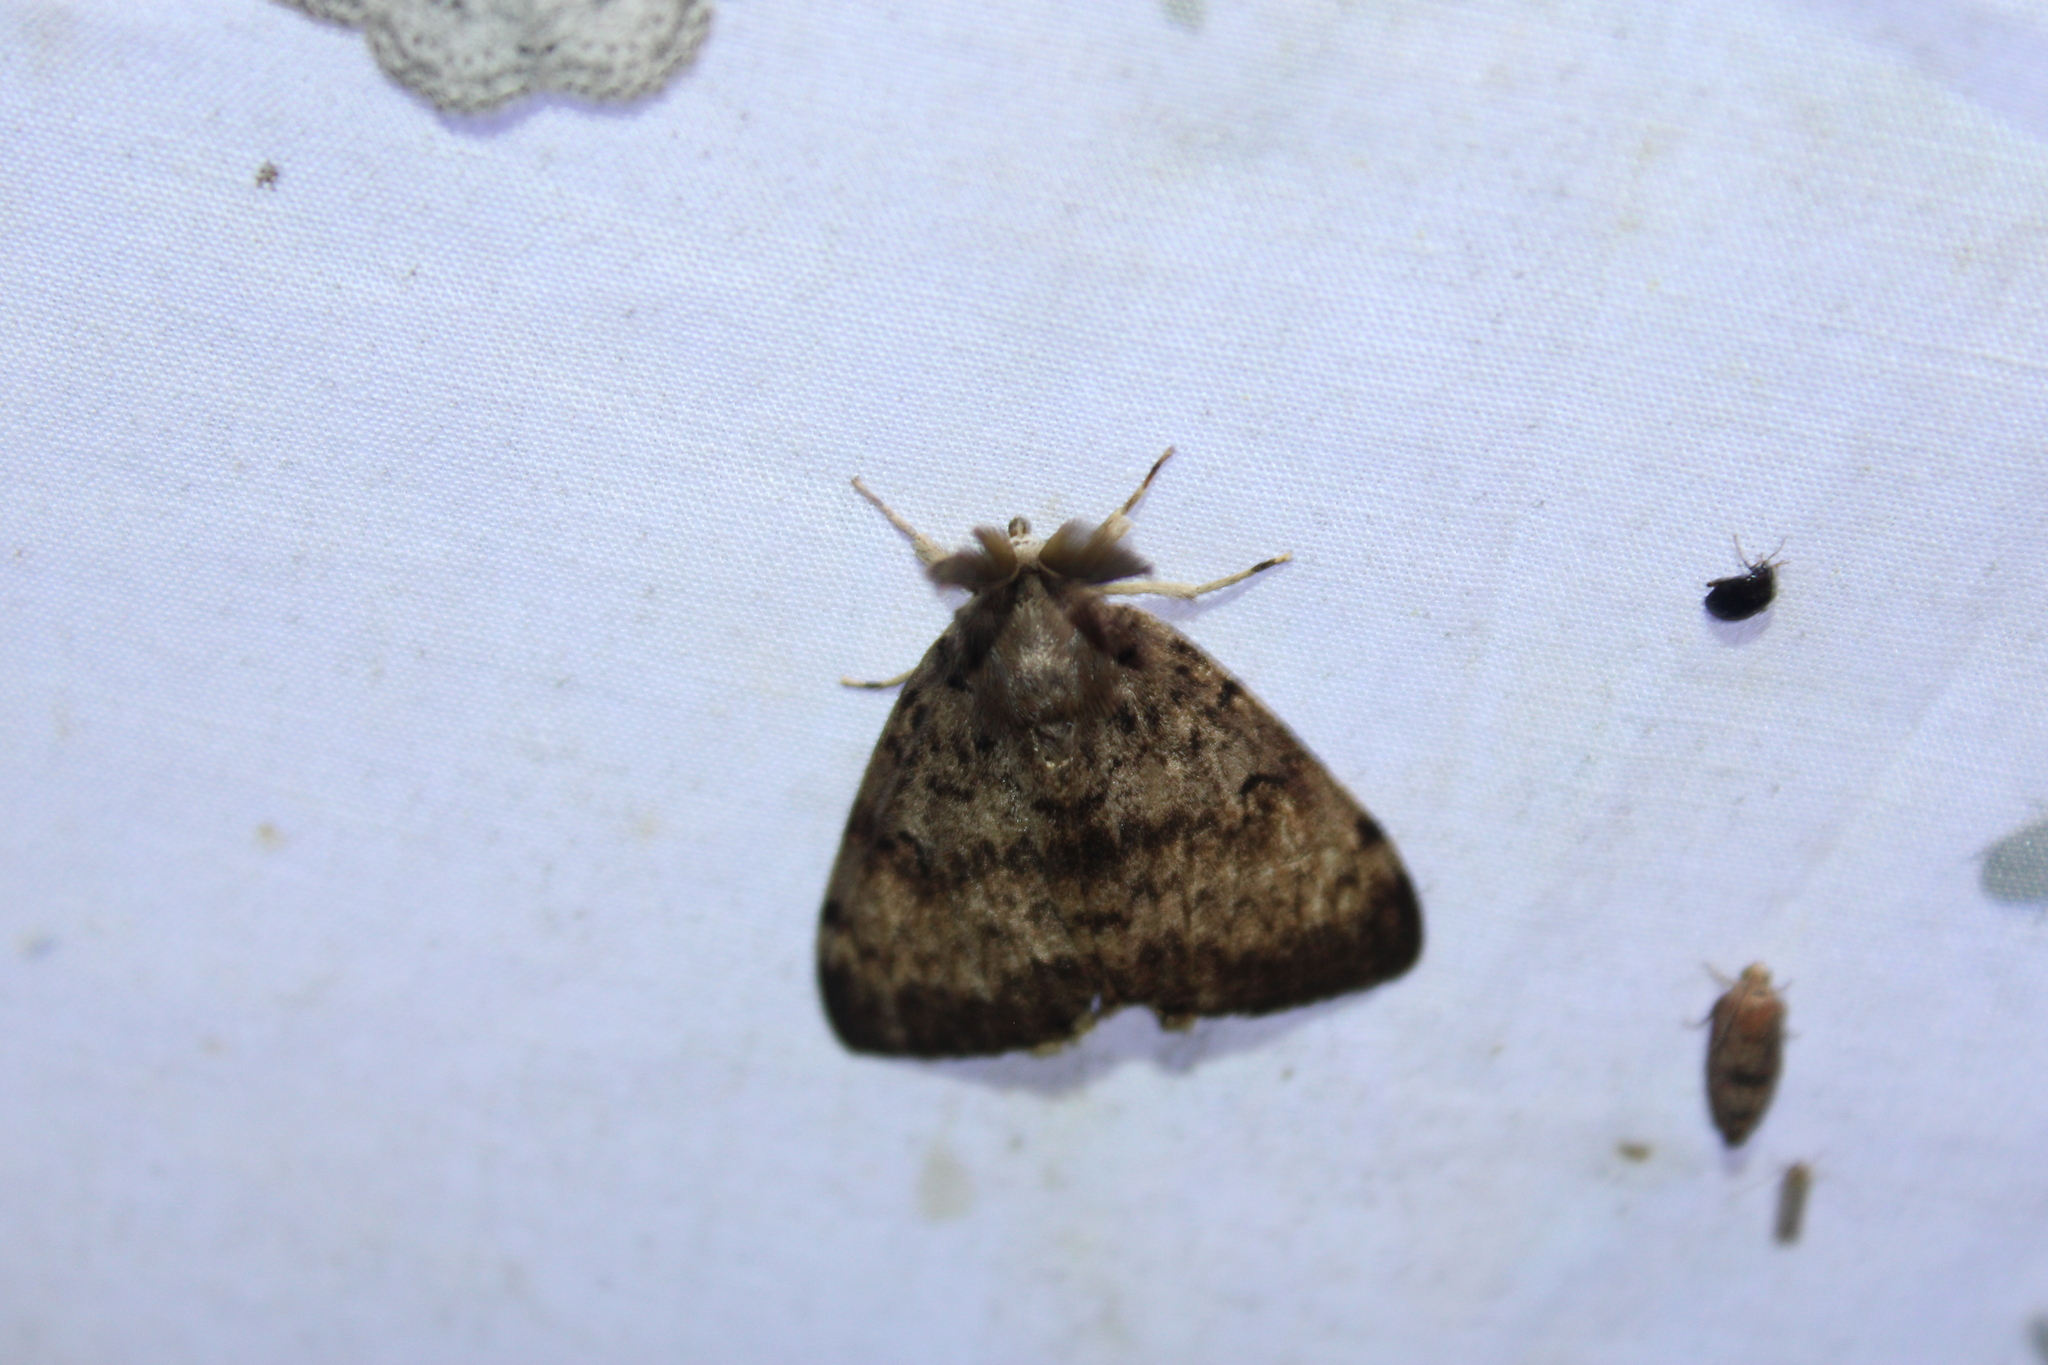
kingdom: Animalia
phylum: Arthropoda
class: Insecta
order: Lepidoptera
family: Erebidae
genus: Lymantria
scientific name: Lymantria dispar
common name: Gypsy moth
